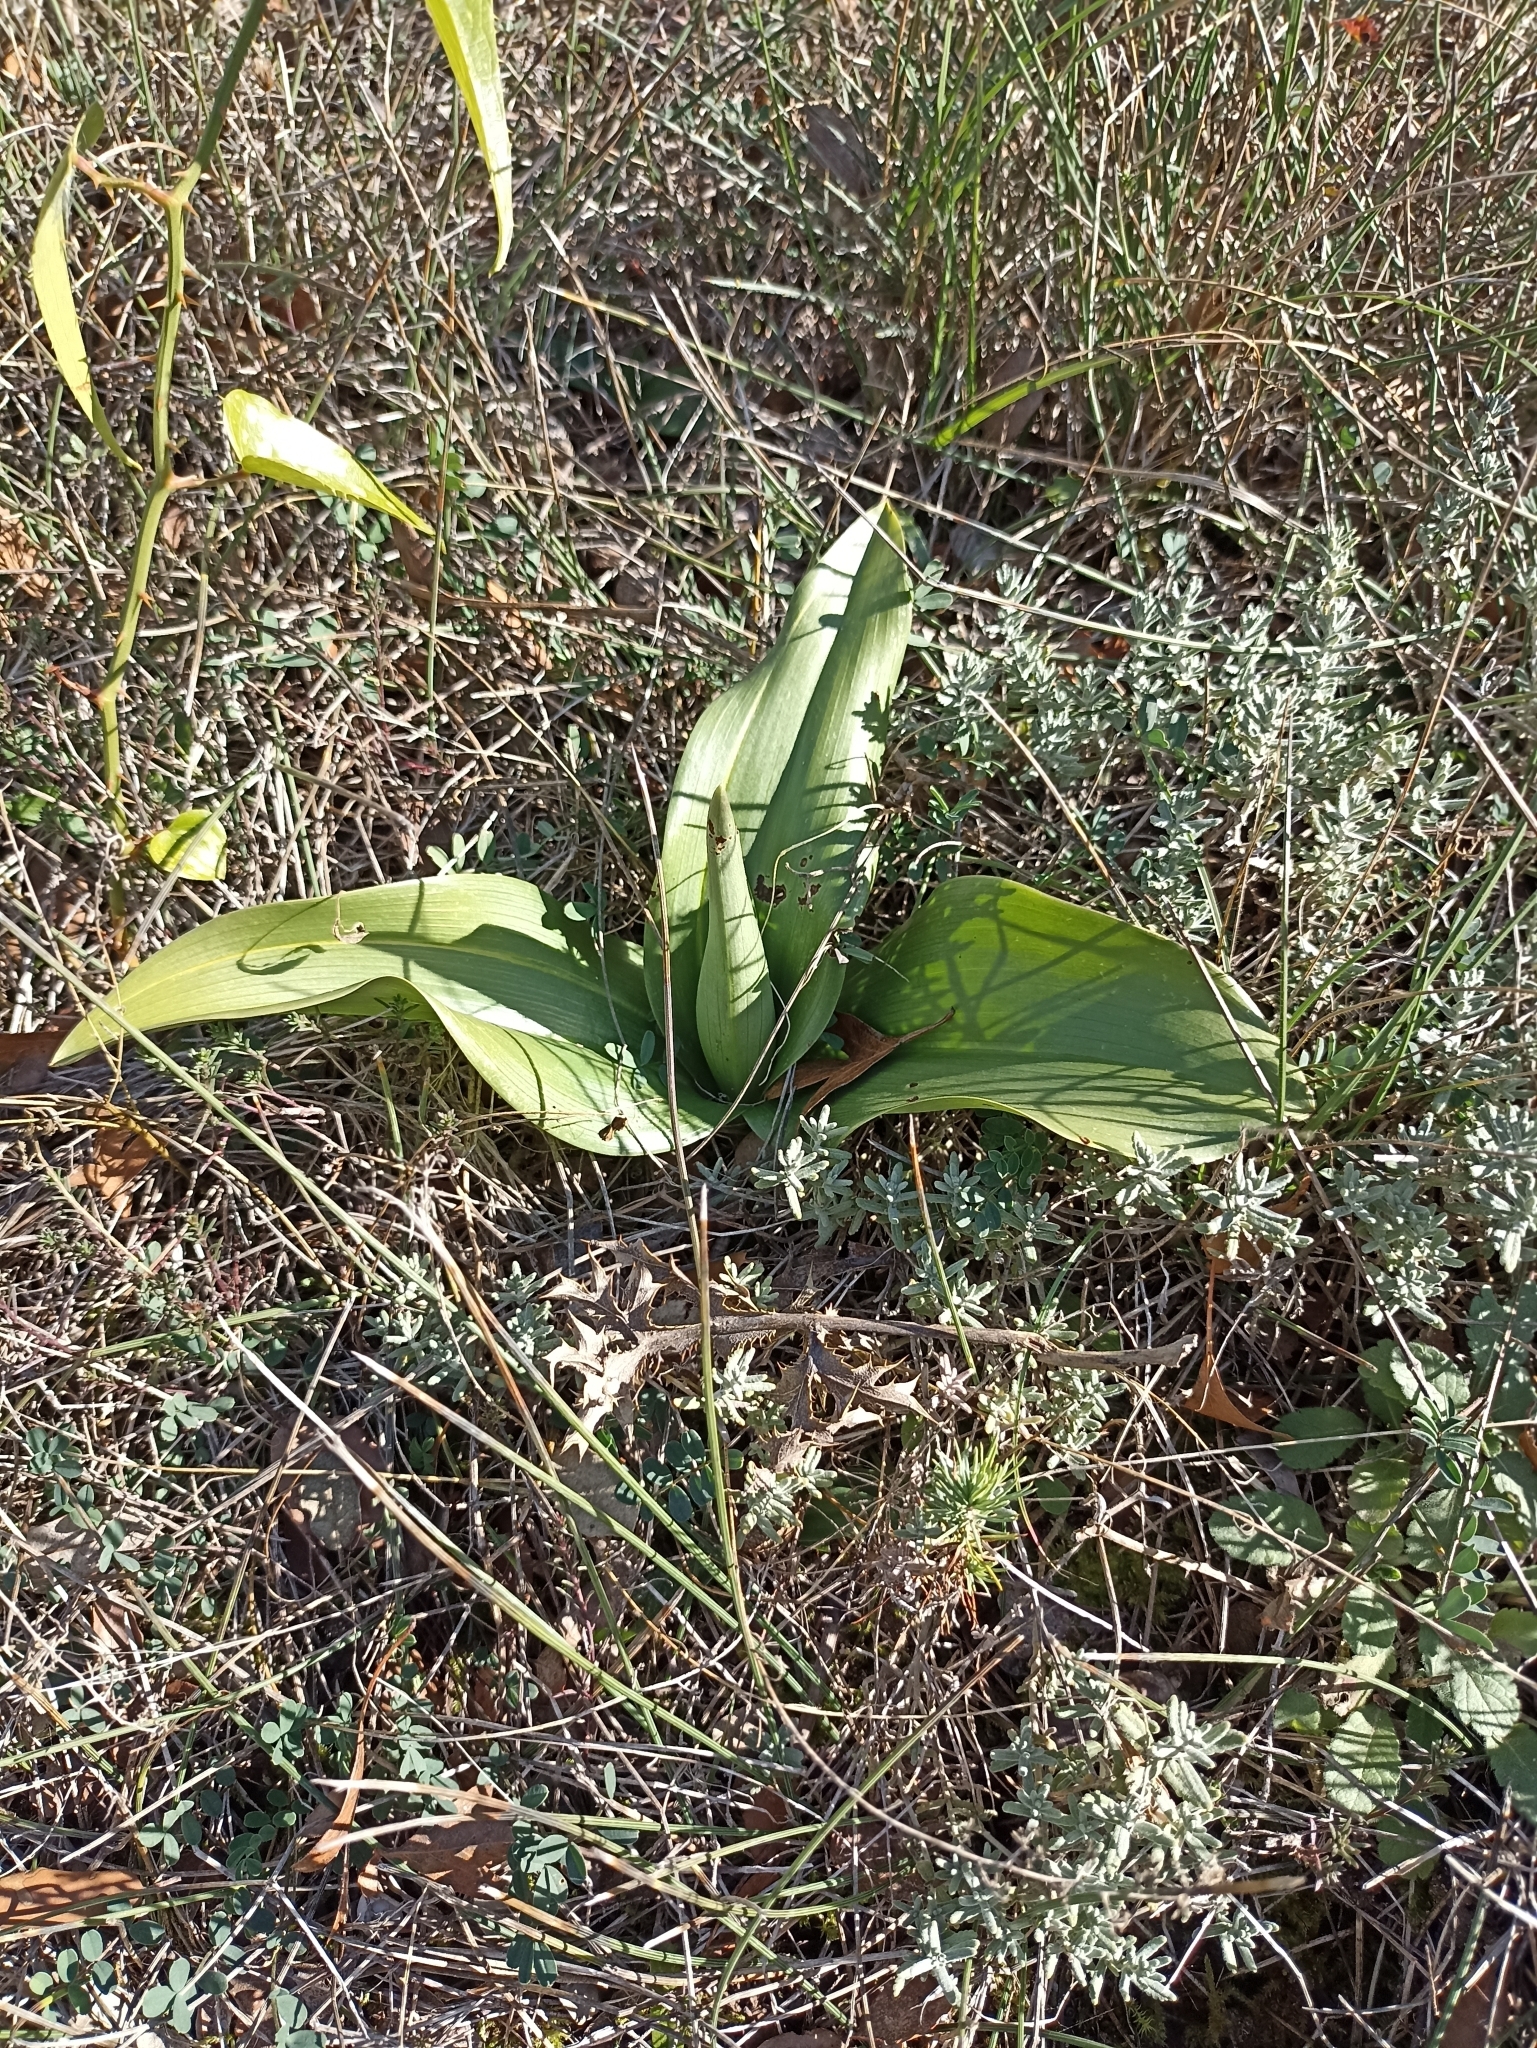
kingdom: Plantae
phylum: Tracheophyta
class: Liliopsida
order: Asparagales
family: Orchidaceae
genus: Himantoglossum
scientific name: Himantoglossum robertianum
